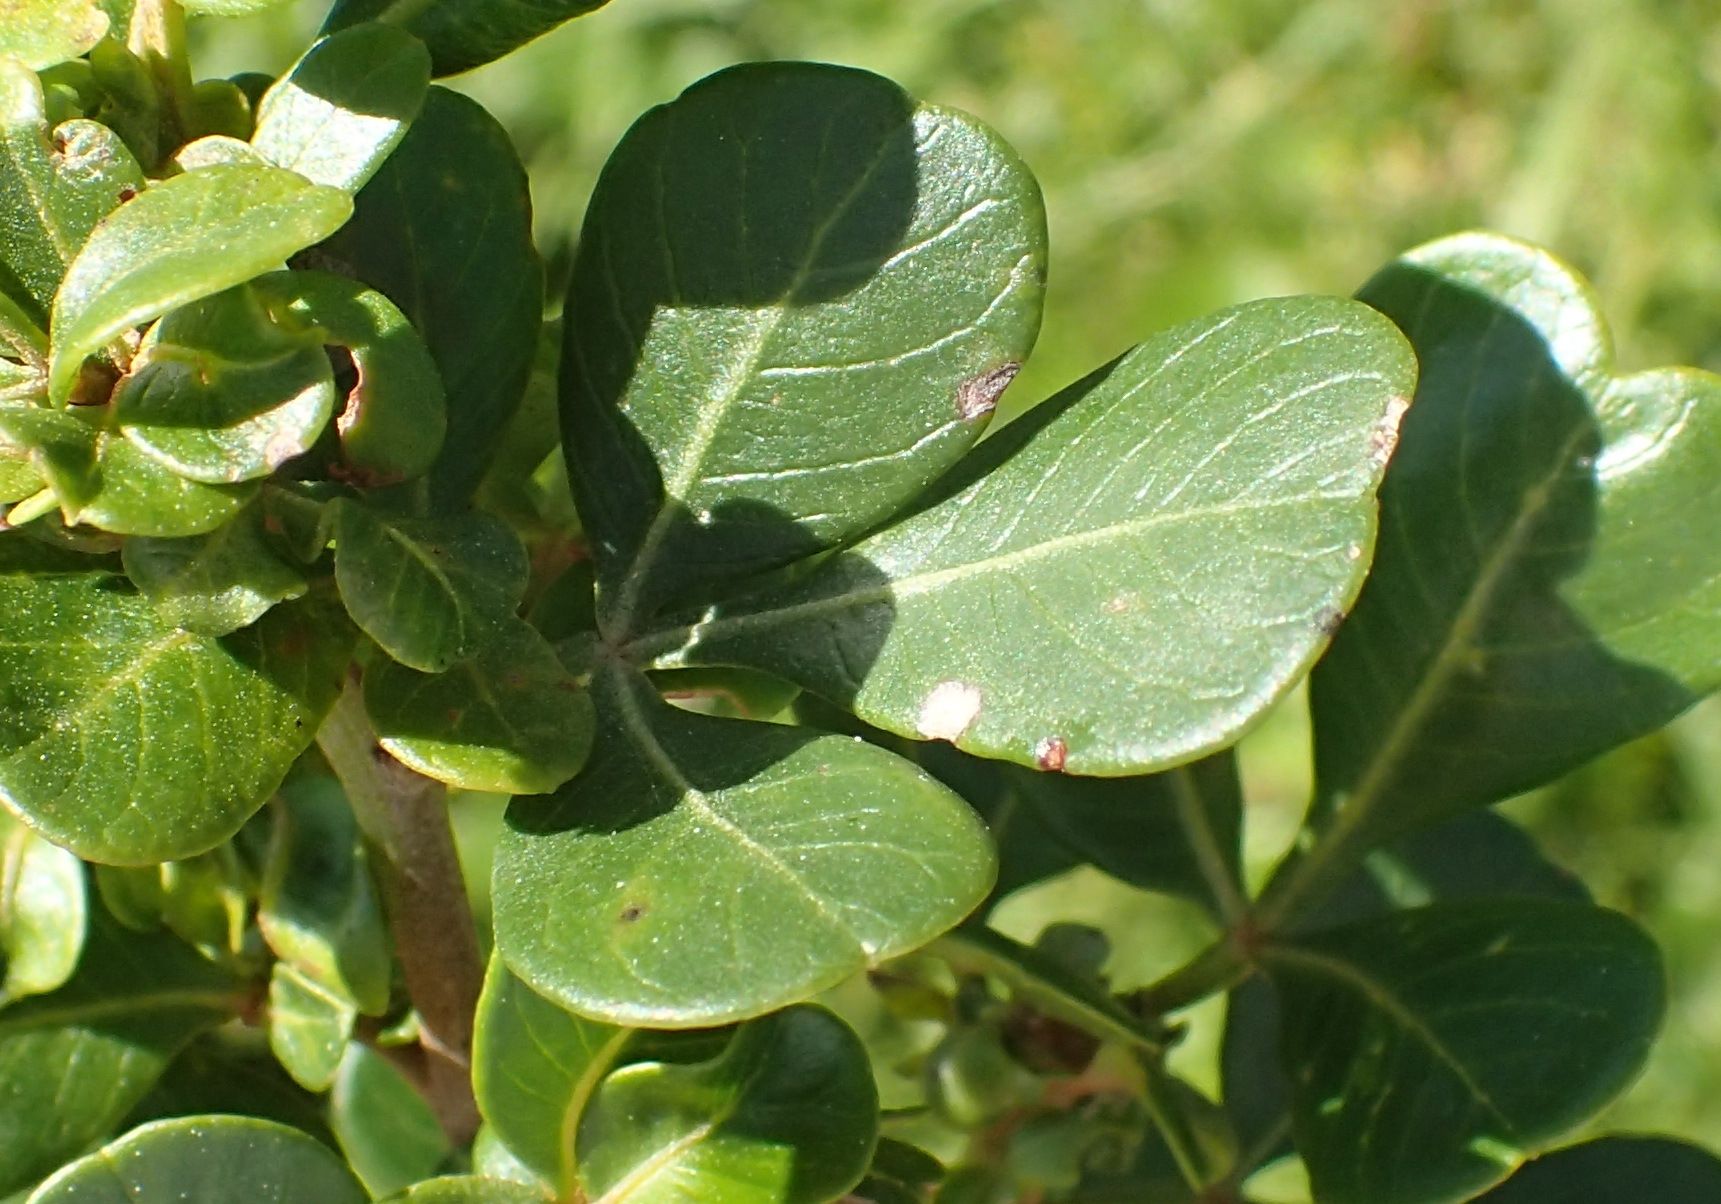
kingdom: Plantae
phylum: Tracheophyta
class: Magnoliopsida
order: Sapindales
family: Anacardiaceae
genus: Searsia
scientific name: Searsia glauca
